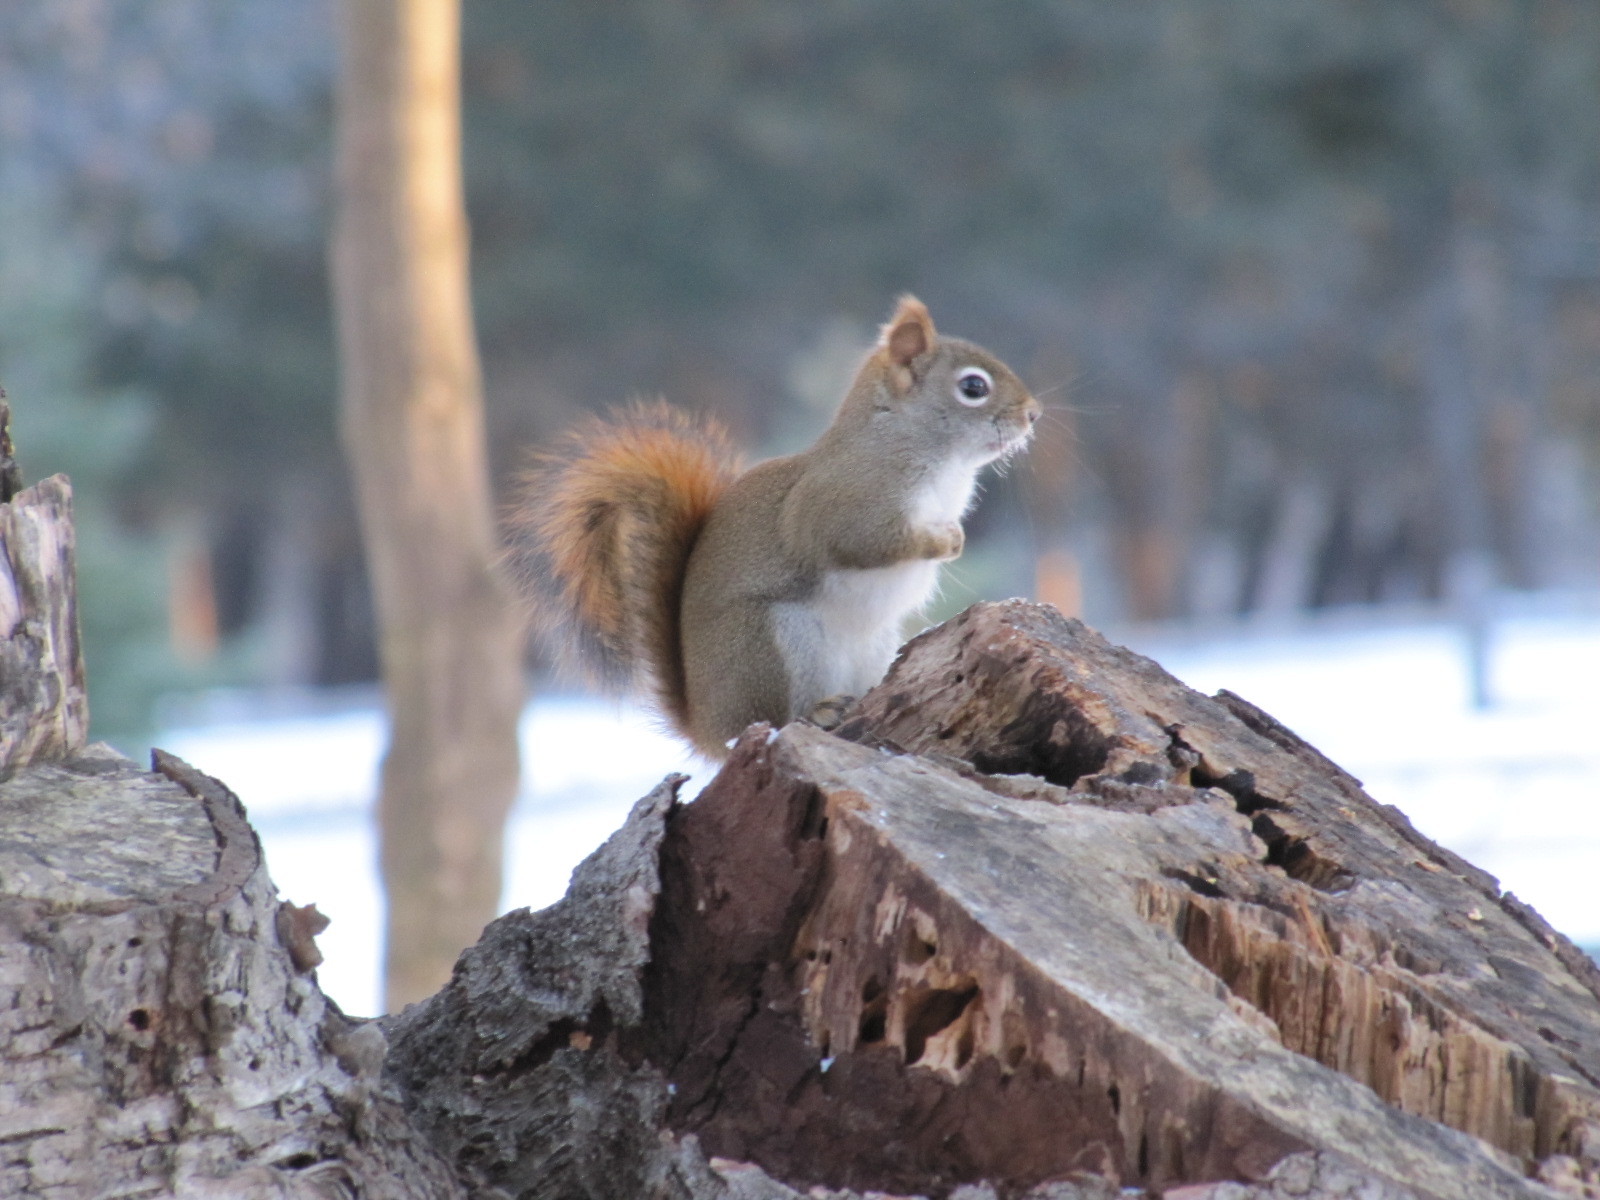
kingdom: Animalia
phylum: Chordata
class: Mammalia
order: Rodentia
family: Sciuridae
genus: Tamiasciurus
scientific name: Tamiasciurus hudsonicus
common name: Red squirrel
